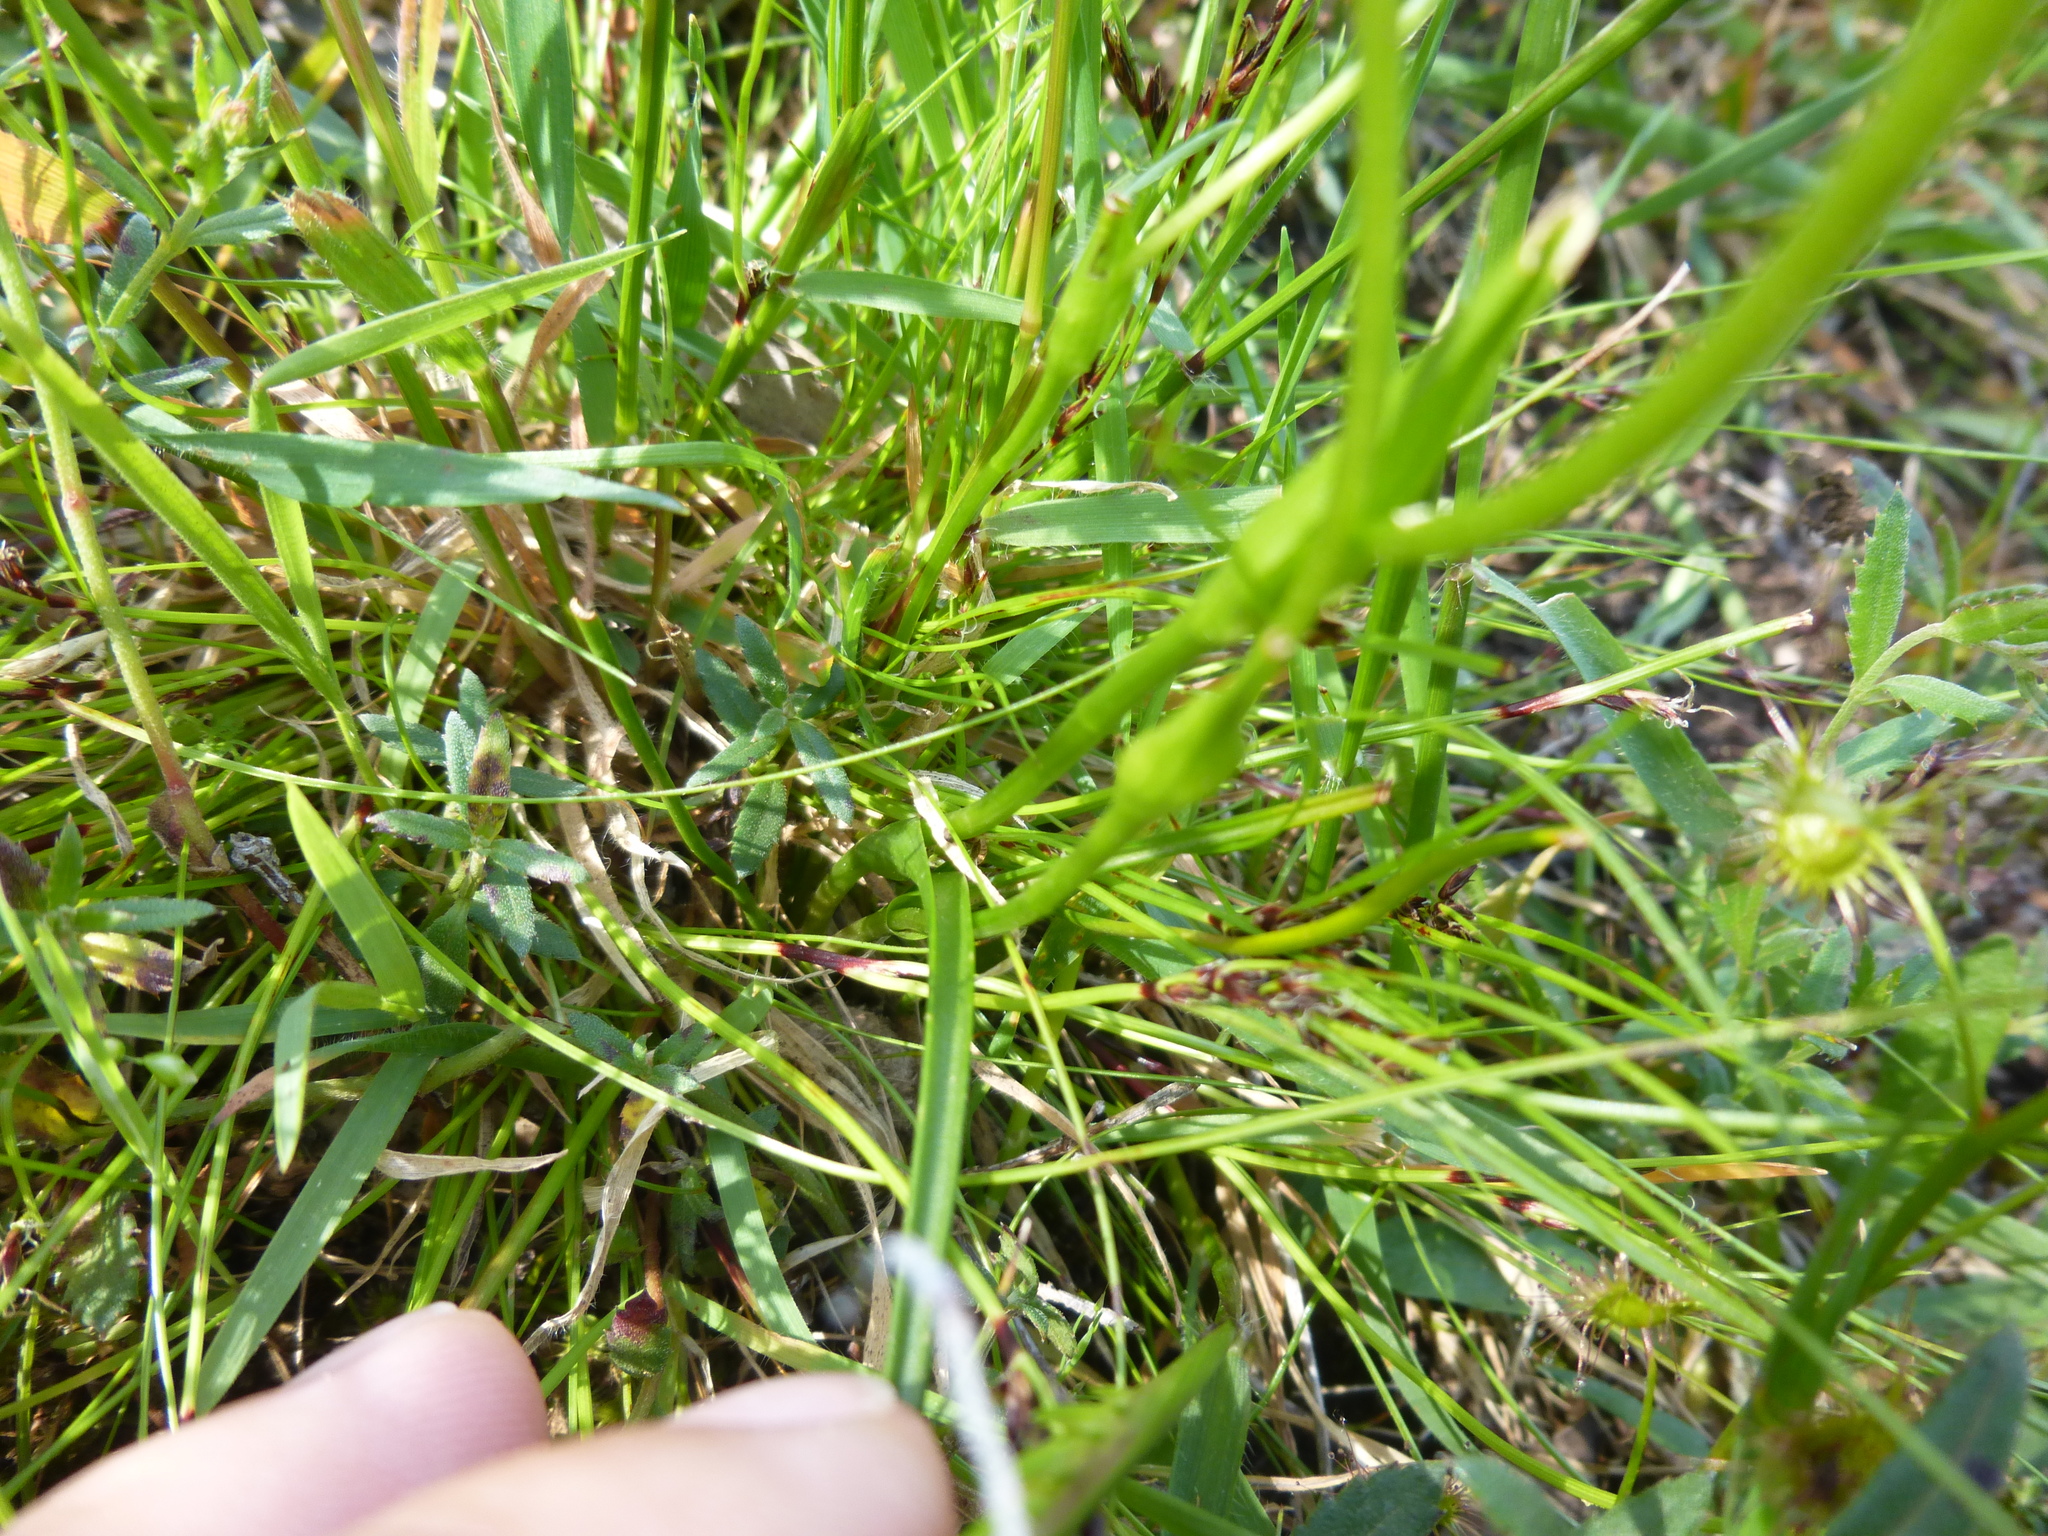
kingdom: Plantae
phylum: Tracheophyta
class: Liliopsida
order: Liliales
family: Colchicaceae
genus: Wurmbea
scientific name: Wurmbea dioica
